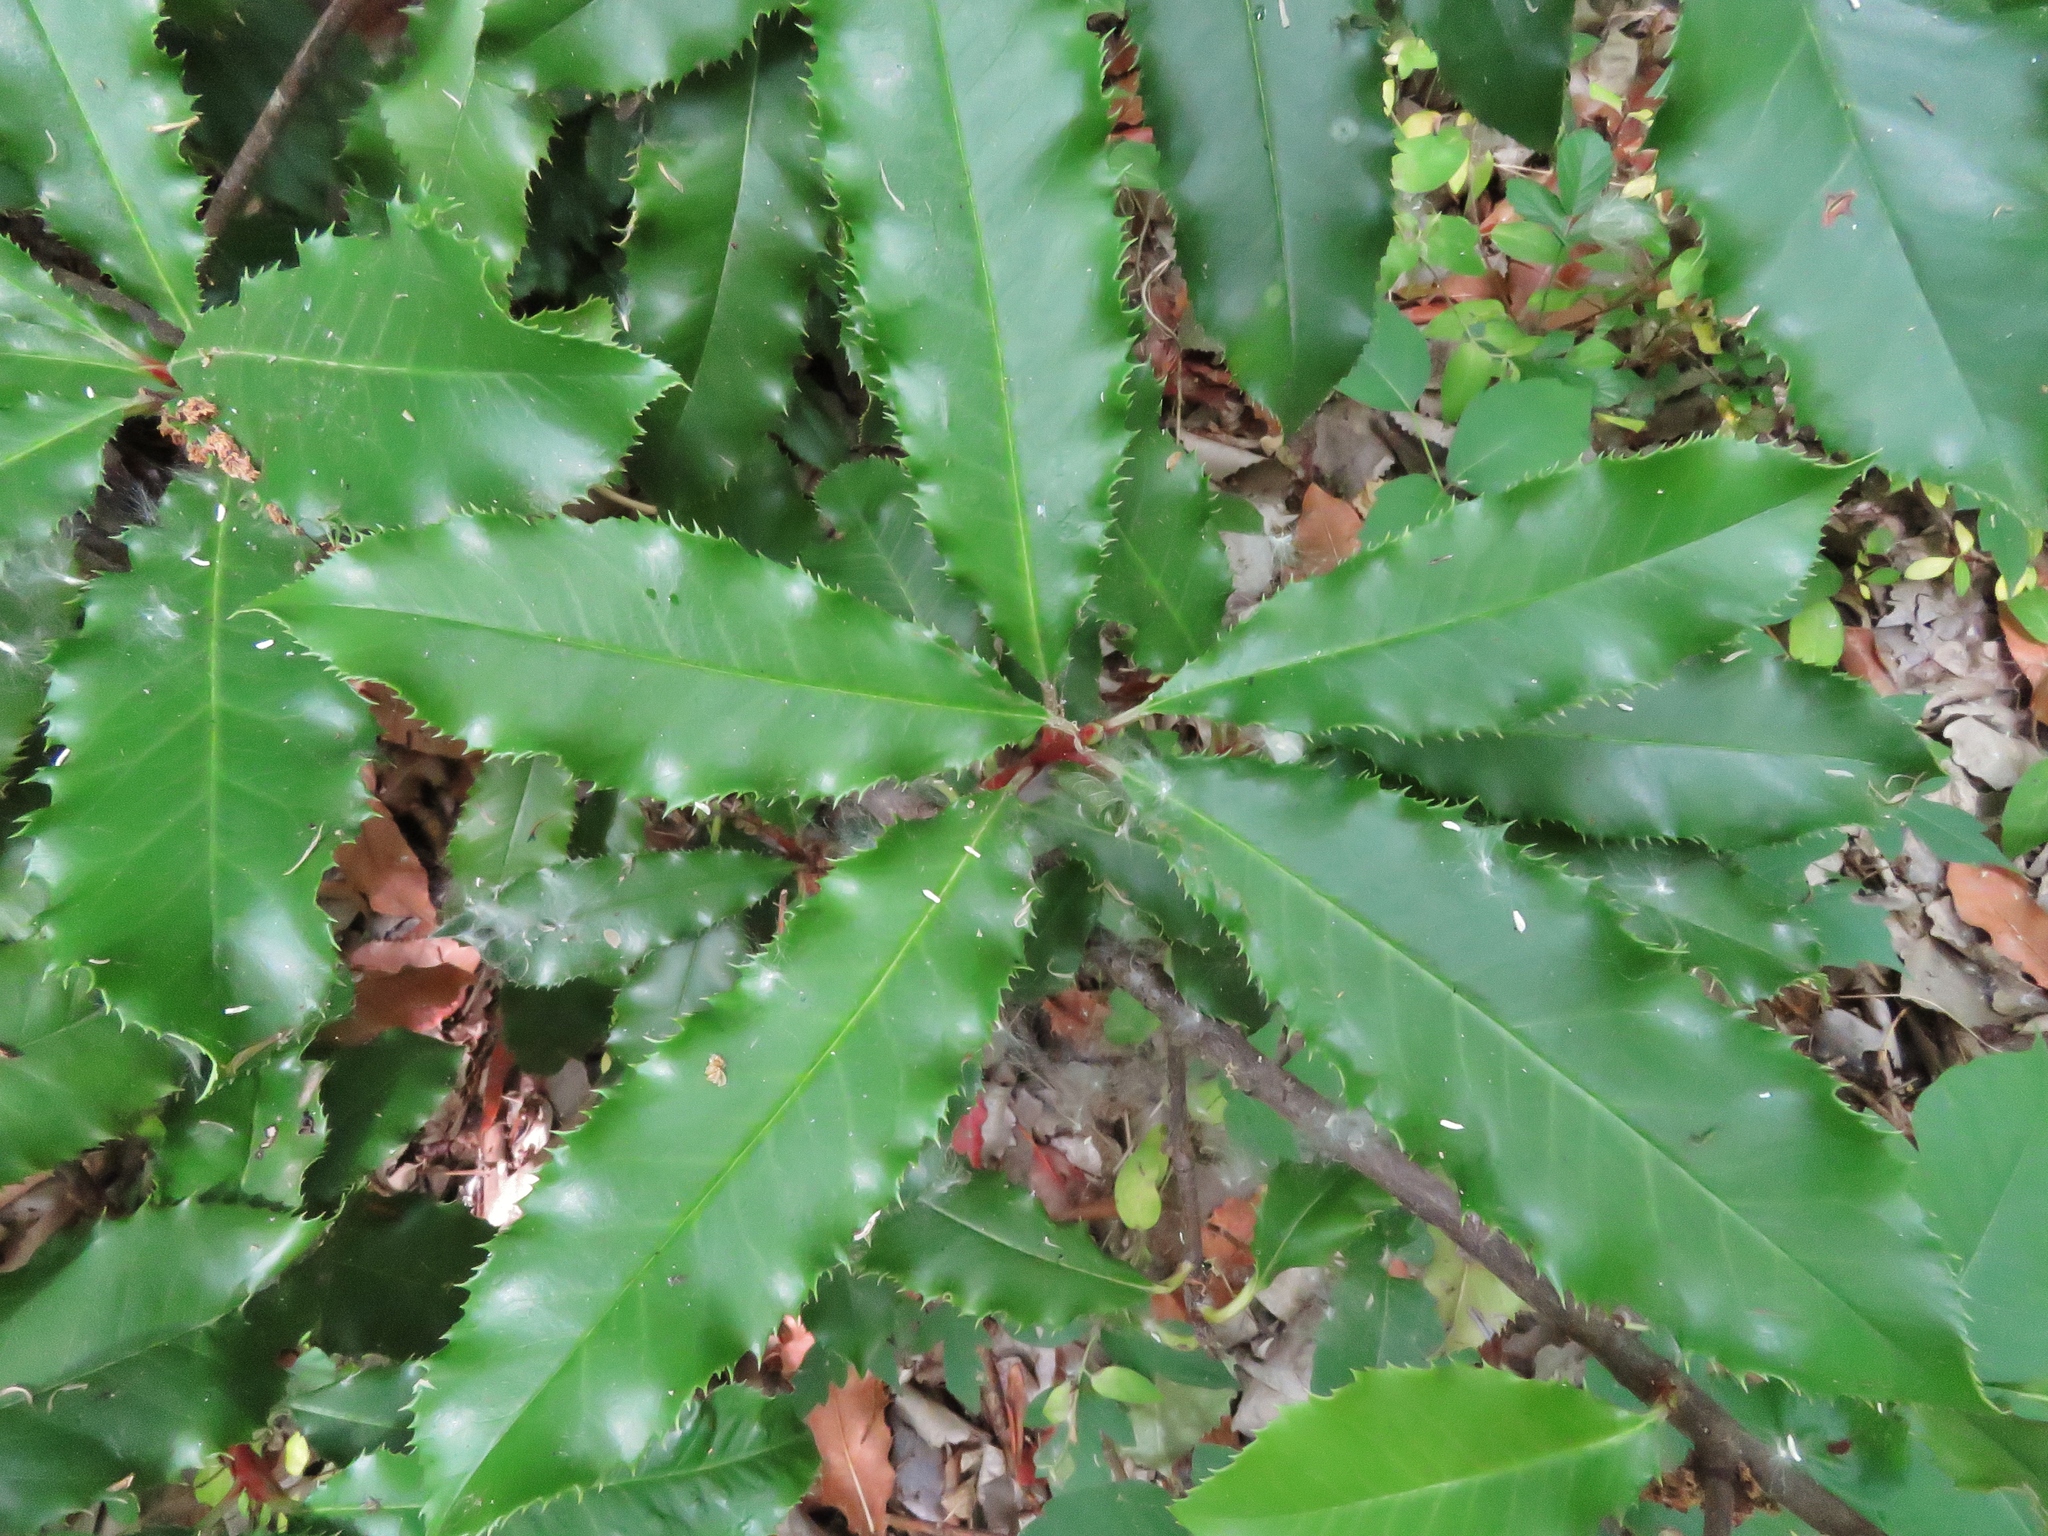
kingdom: Plantae
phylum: Tracheophyta
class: Magnoliopsida
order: Rosales
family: Rosaceae
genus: Photinia
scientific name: Photinia serratifolia
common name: Taiwanese photinia
